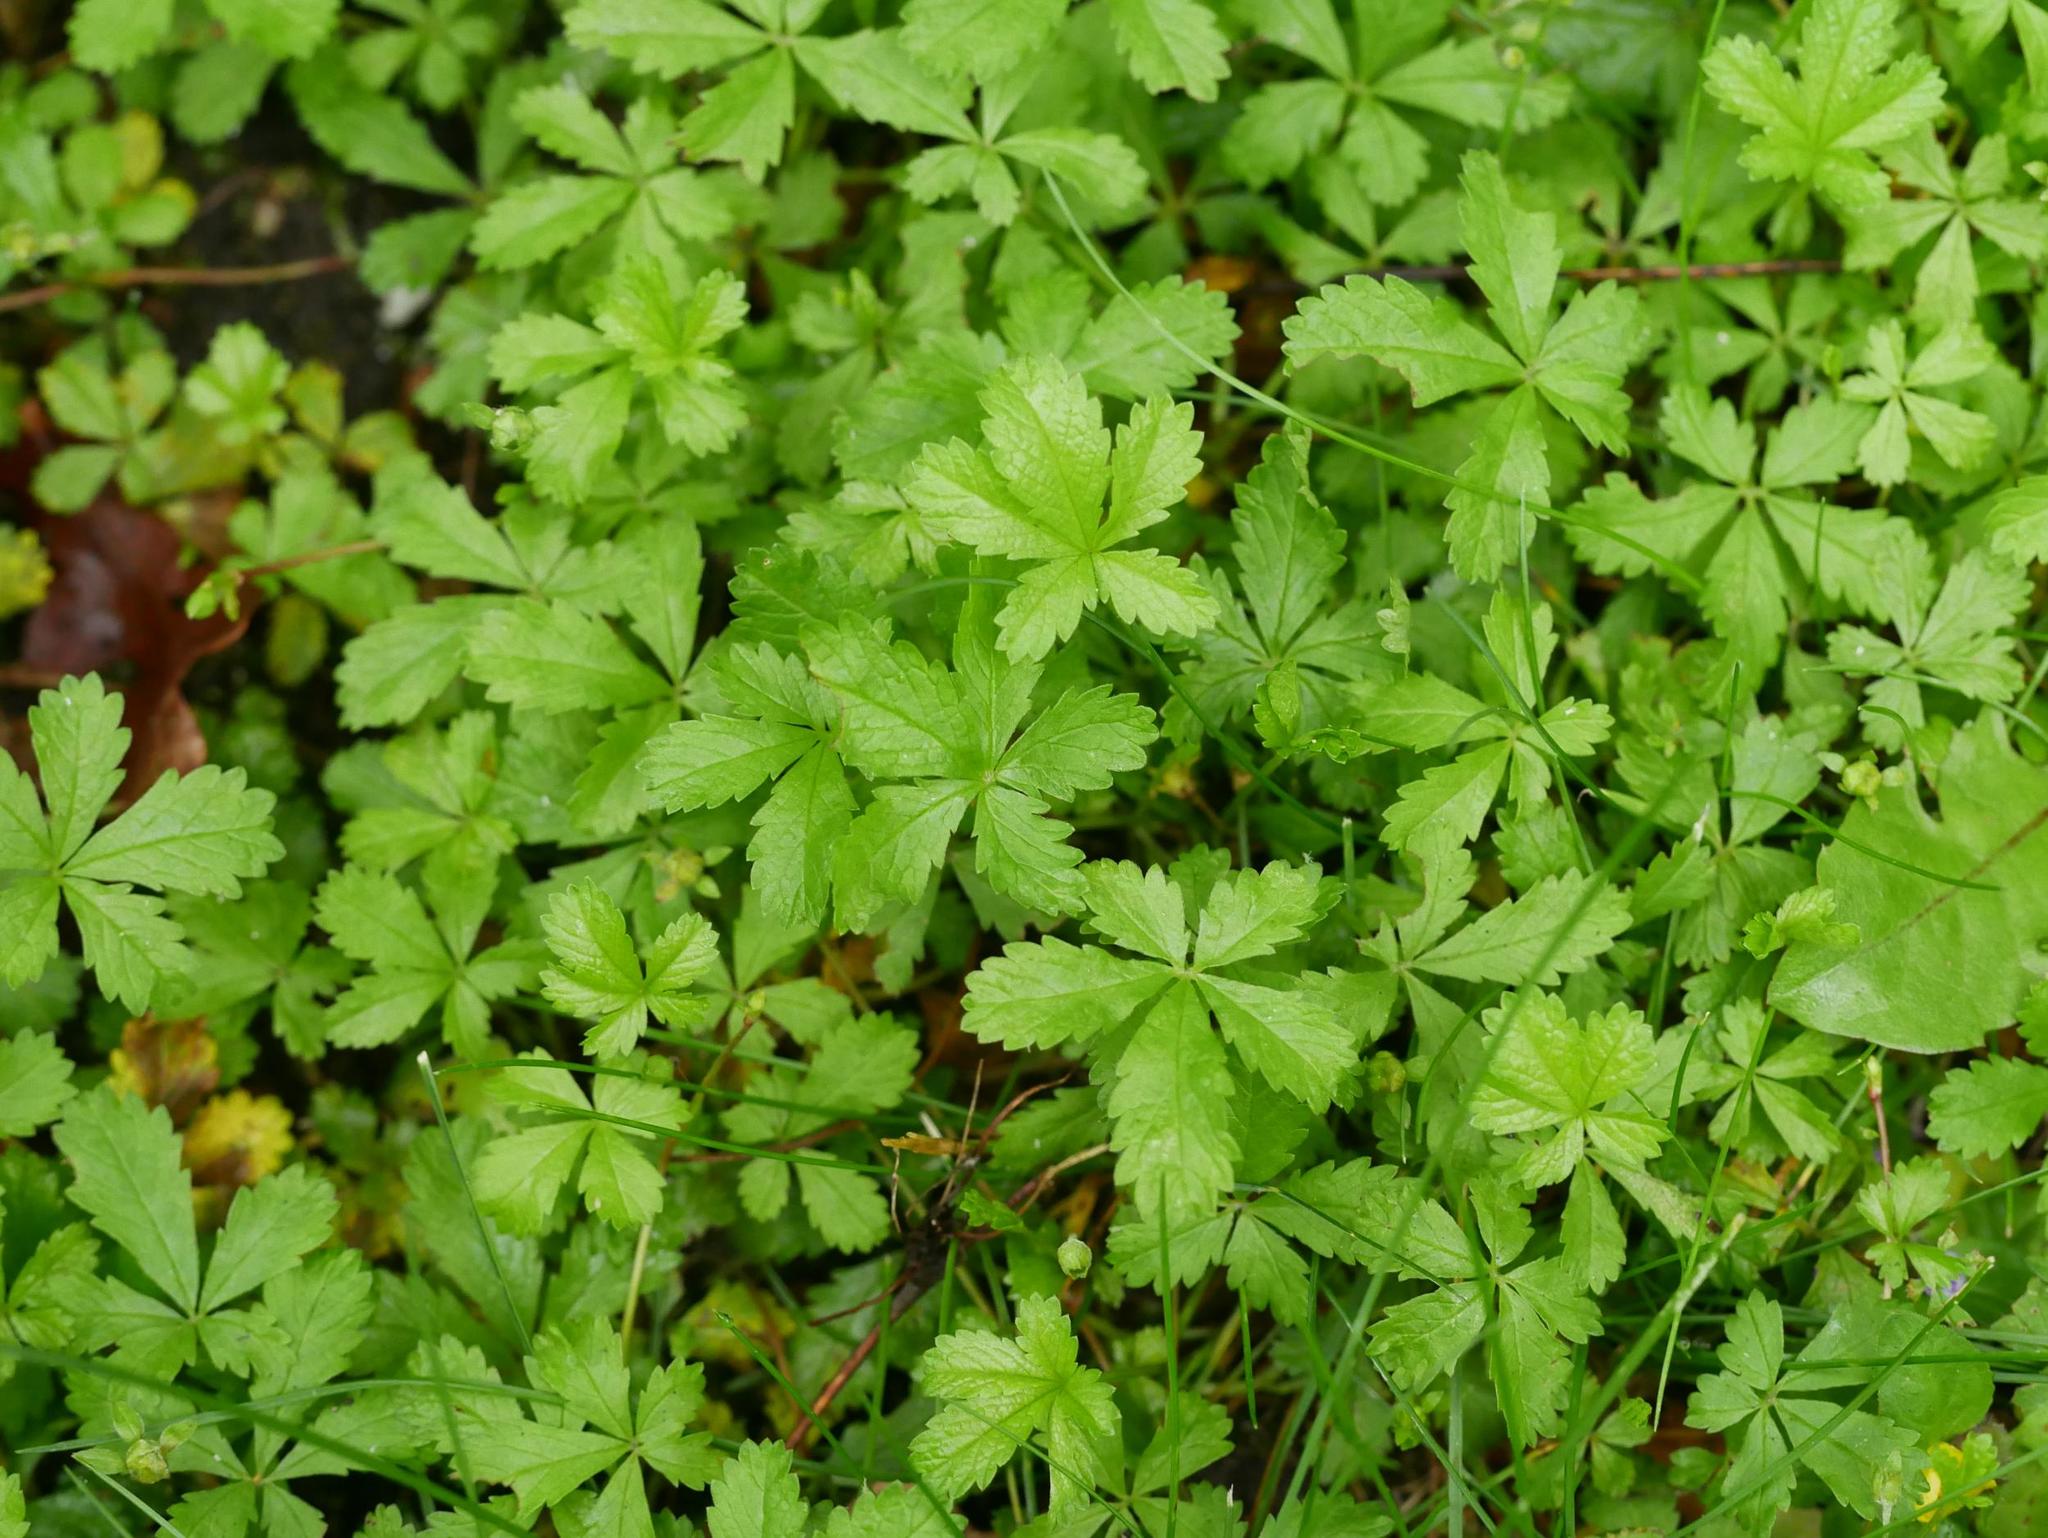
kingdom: Plantae
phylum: Tracheophyta
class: Magnoliopsida
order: Rosales
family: Rosaceae
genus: Potentilla
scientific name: Potentilla reptans
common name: Creeping cinquefoil
